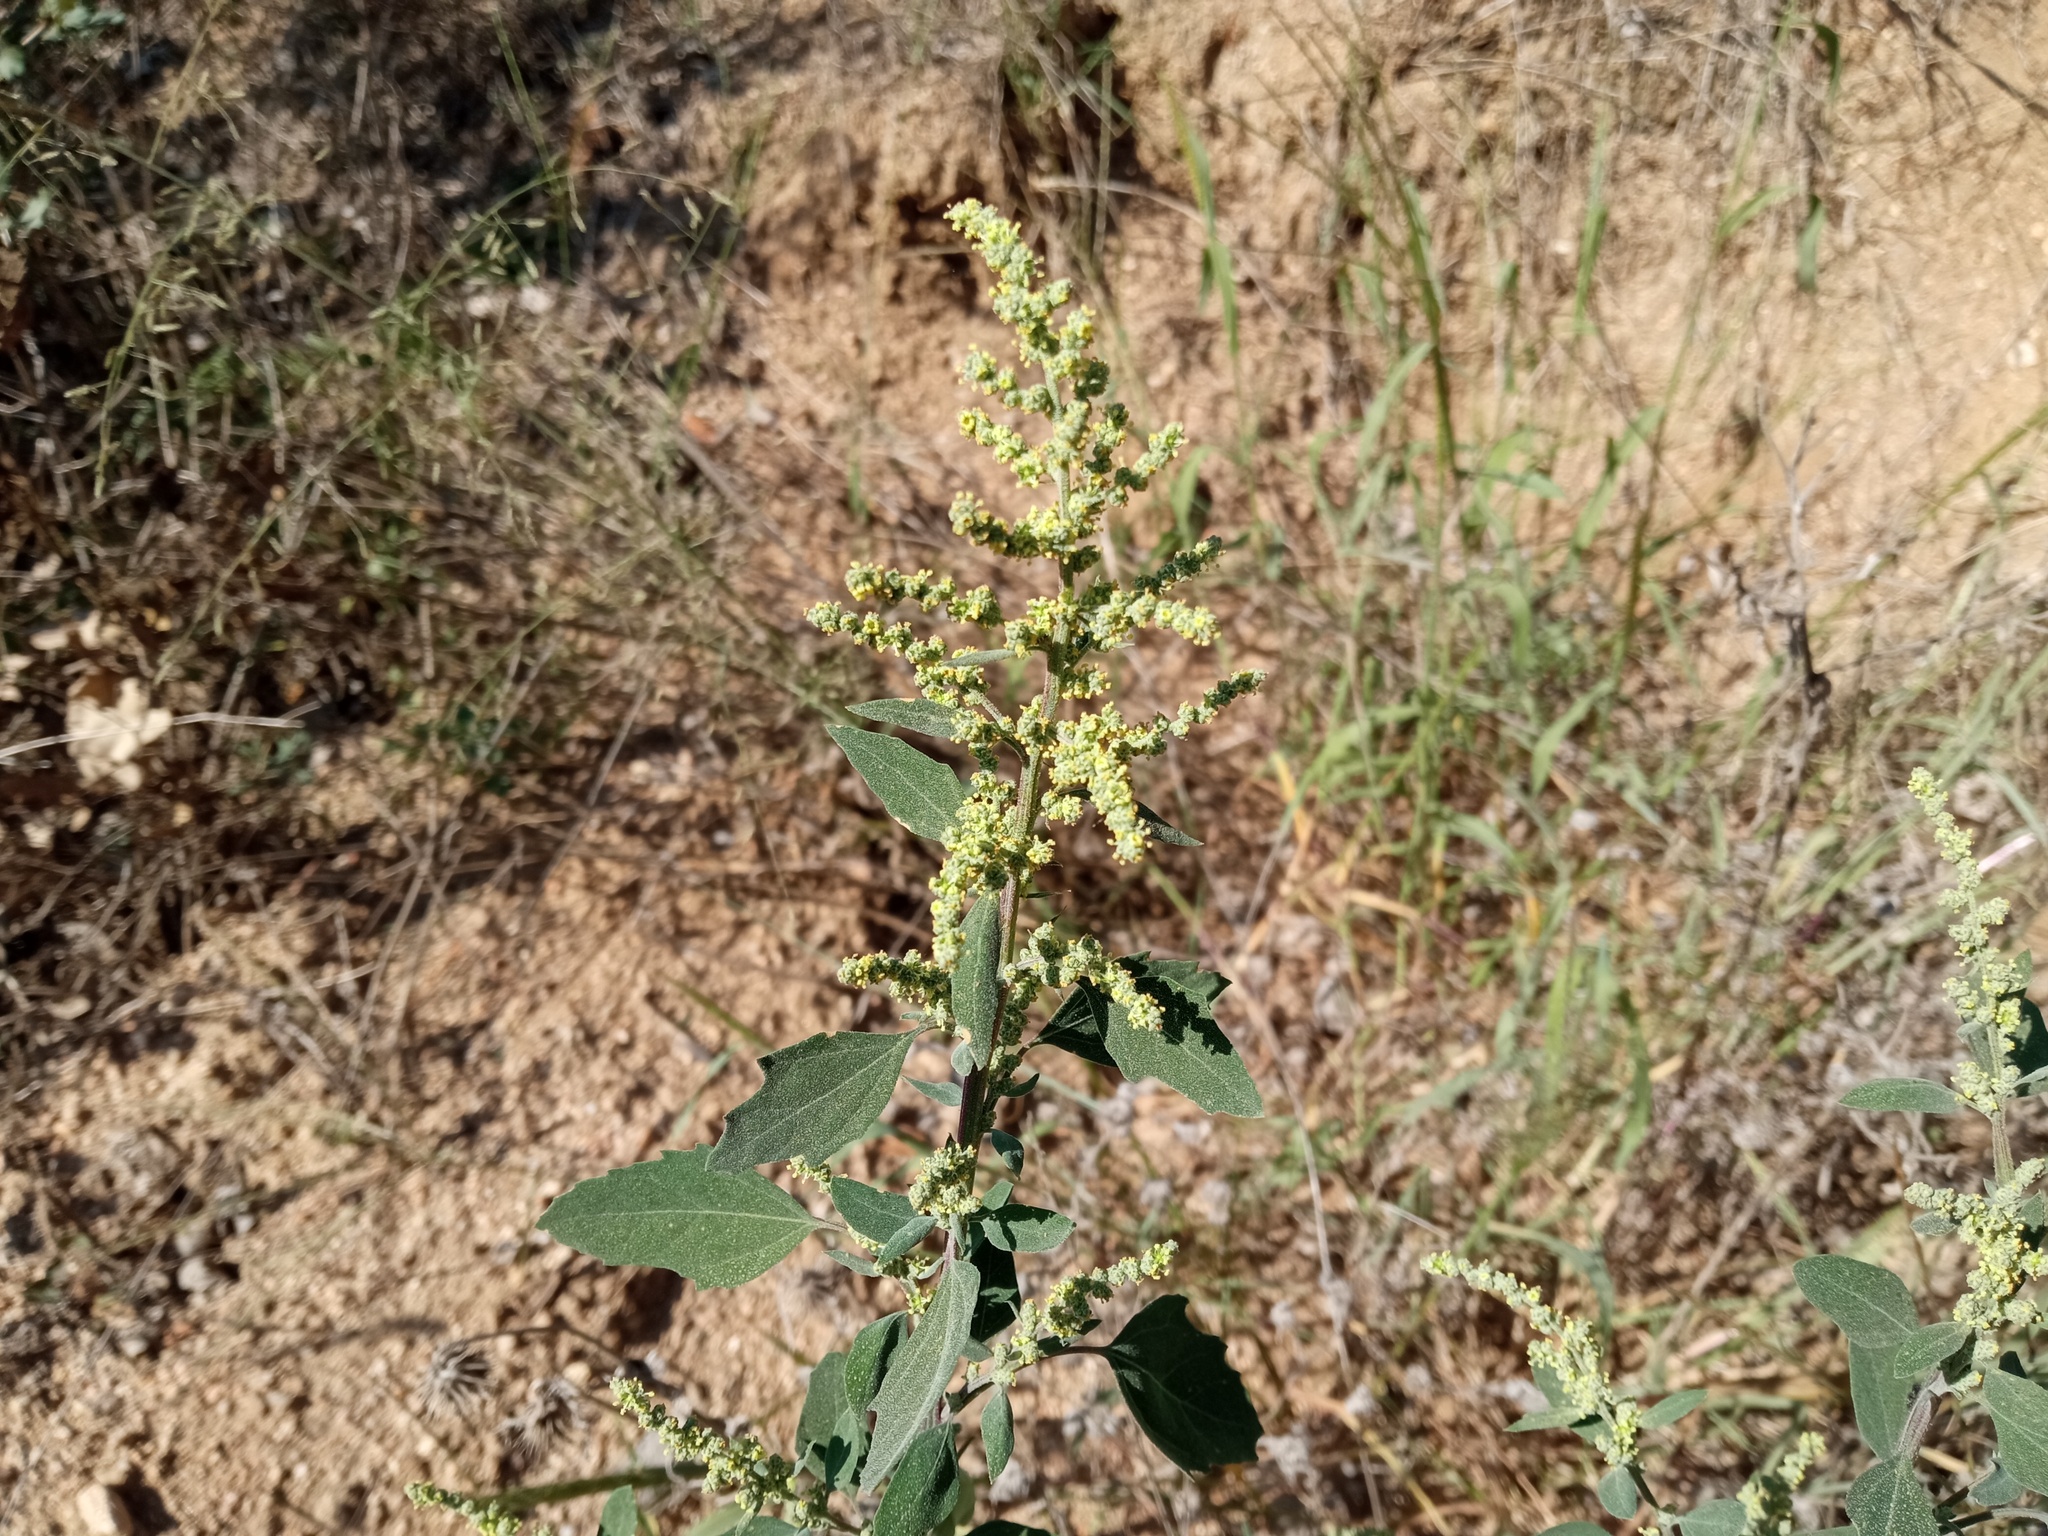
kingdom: Plantae
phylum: Tracheophyta
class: Magnoliopsida
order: Caryophyllales
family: Amaranthaceae
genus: Chenopodium
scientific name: Chenopodium album
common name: Fat-hen
